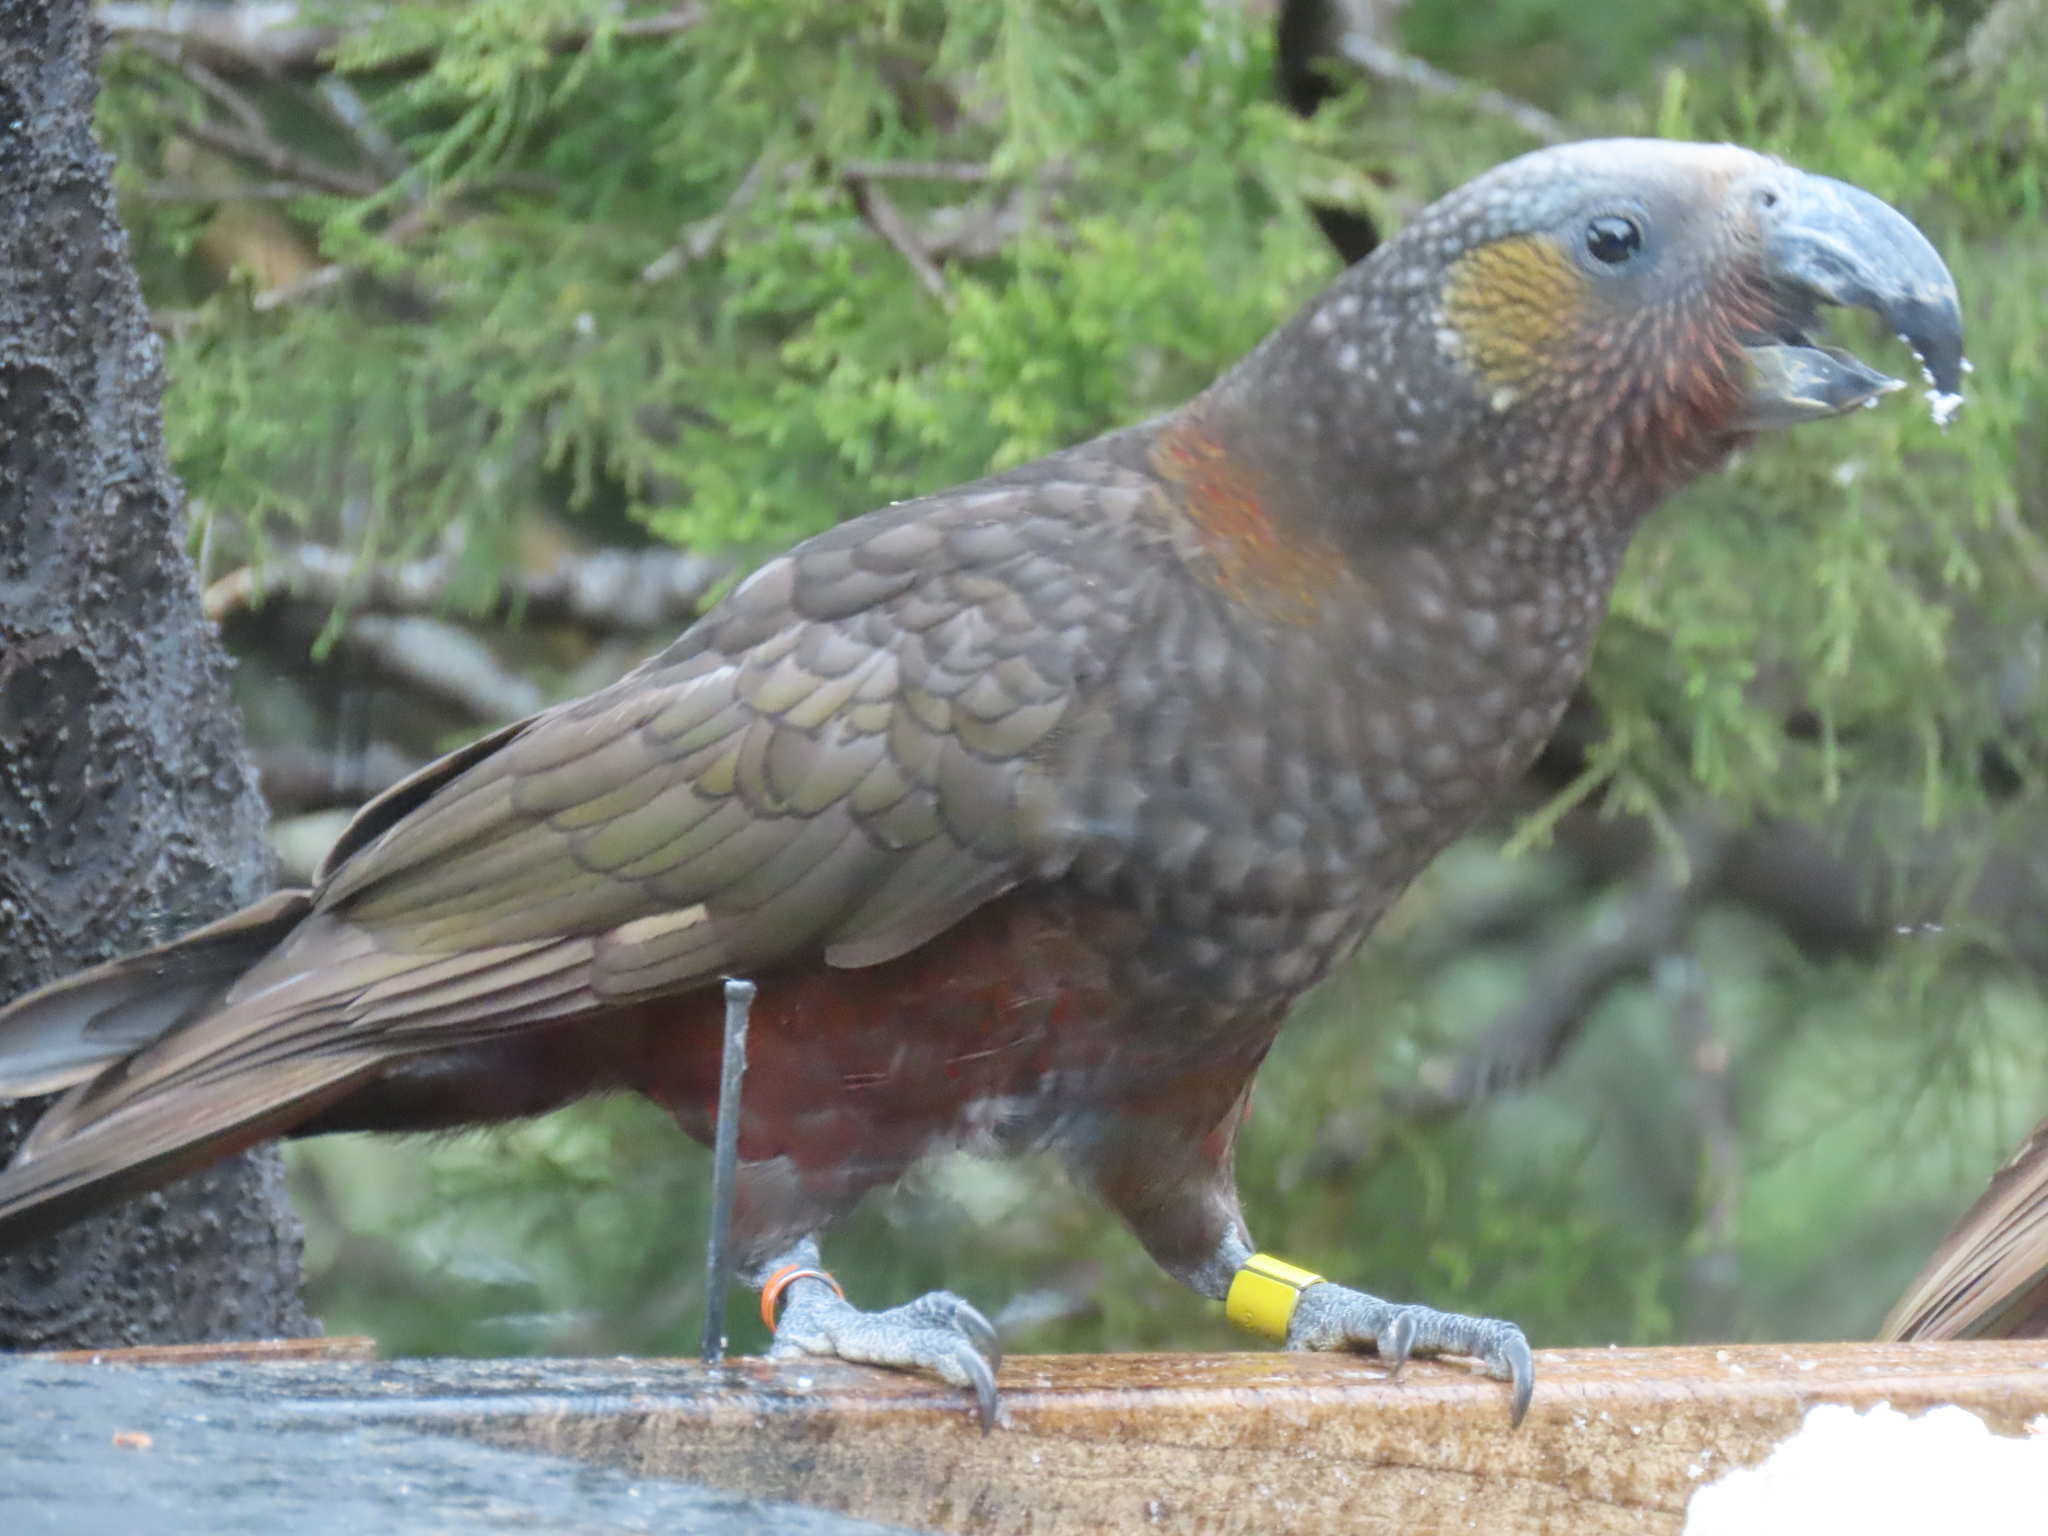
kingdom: Animalia
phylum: Chordata
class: Aves
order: Psittaciformes
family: Psittacidae
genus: Nestor
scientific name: Nestor meridionalis
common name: New zealand kaka
